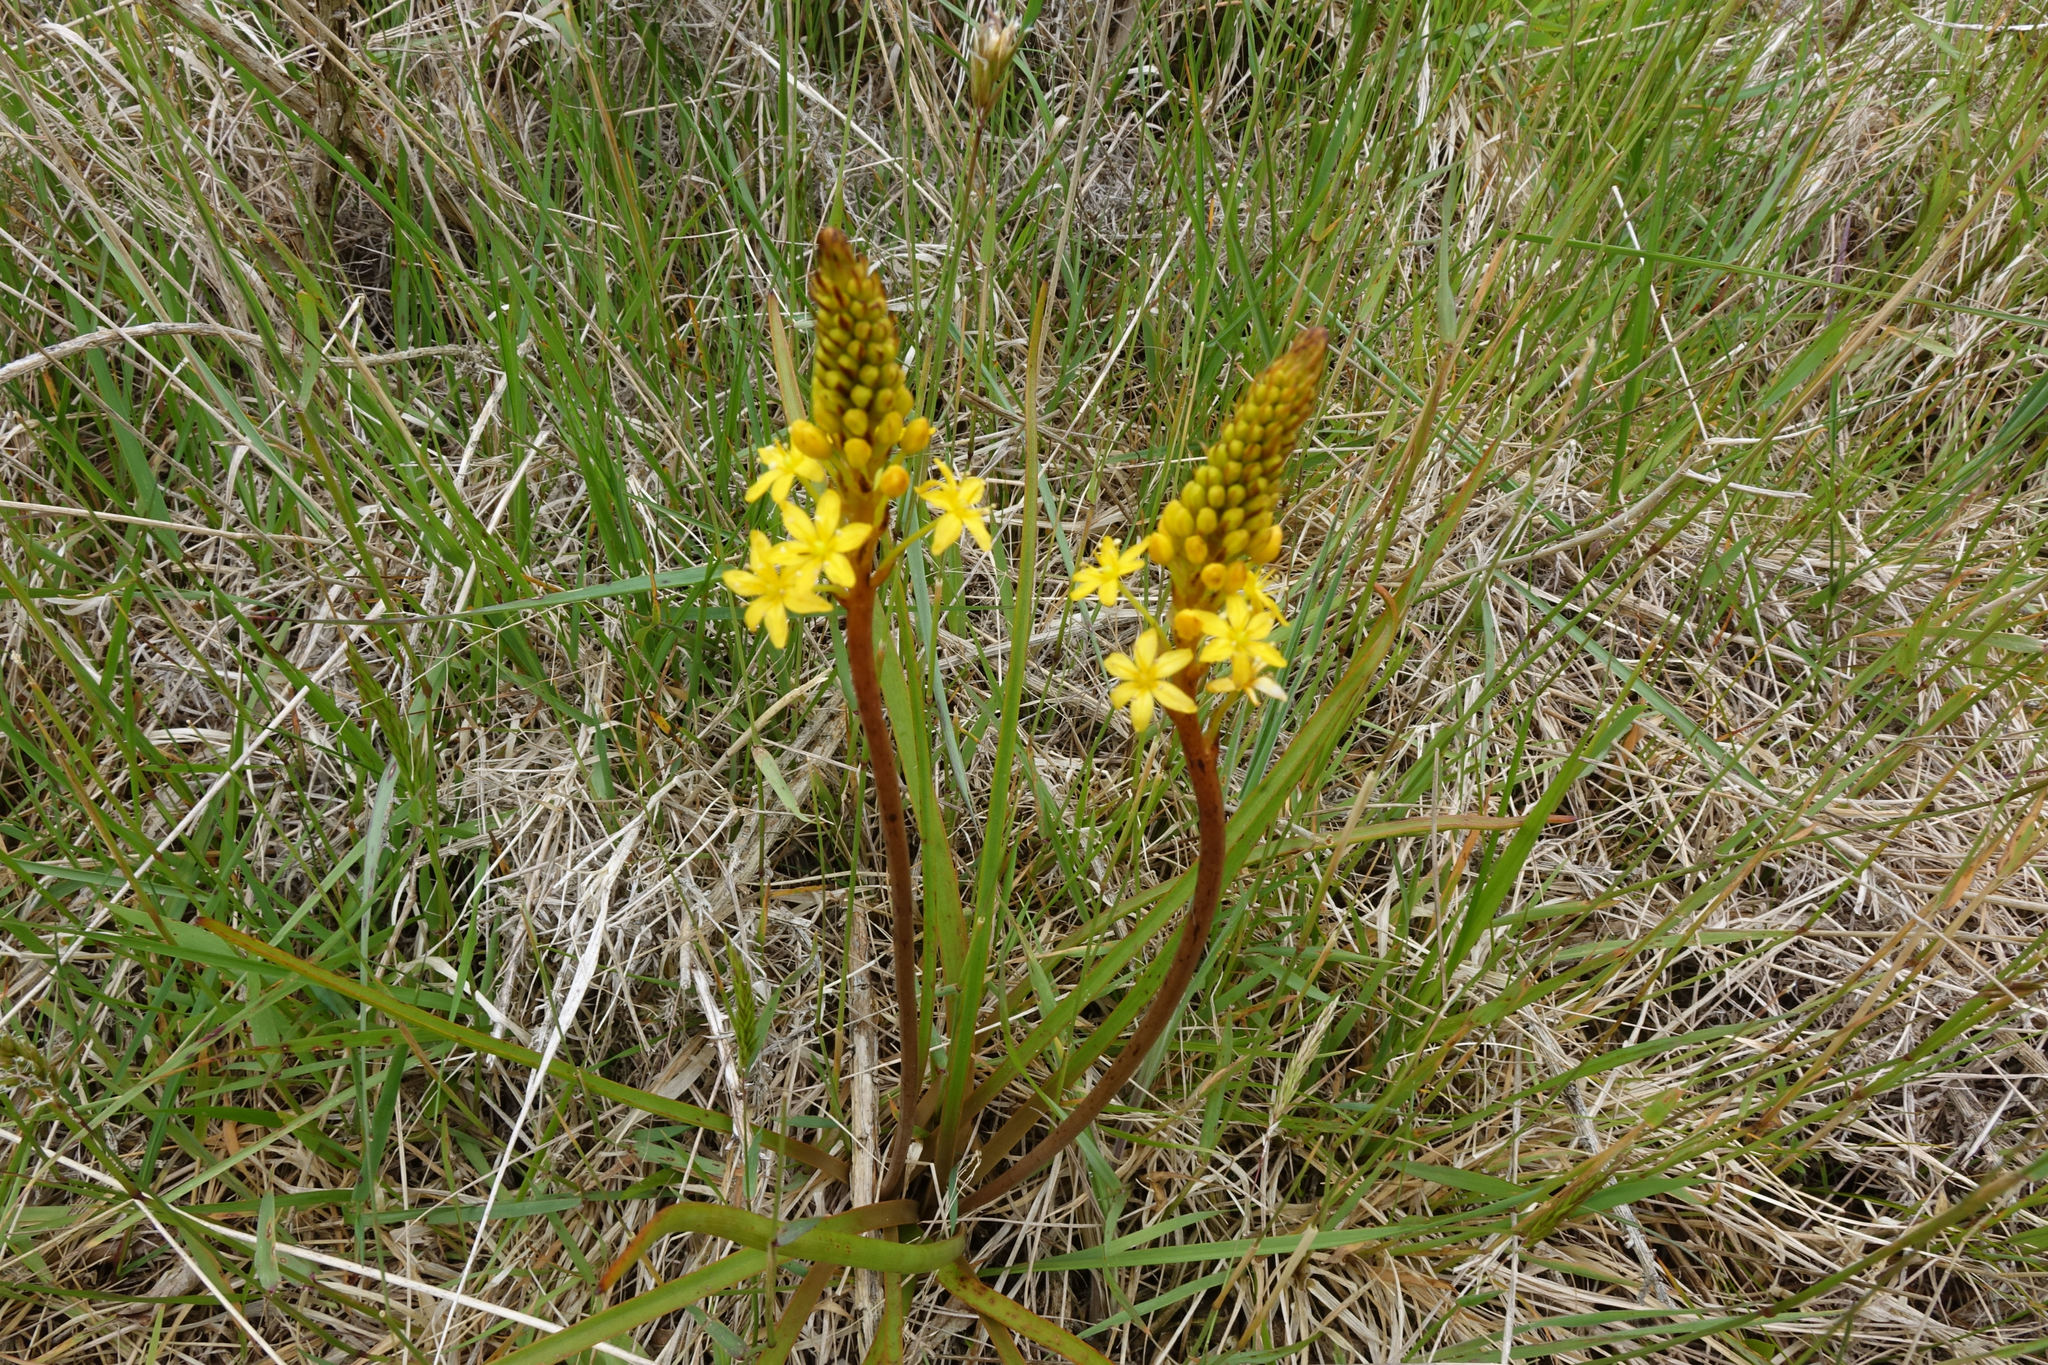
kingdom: Plantae
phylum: Tracheophyta
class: Liliopsida
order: Asparagales
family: Asphodelaceae
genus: Bulbinella
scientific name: Bulbinella angustifolia
